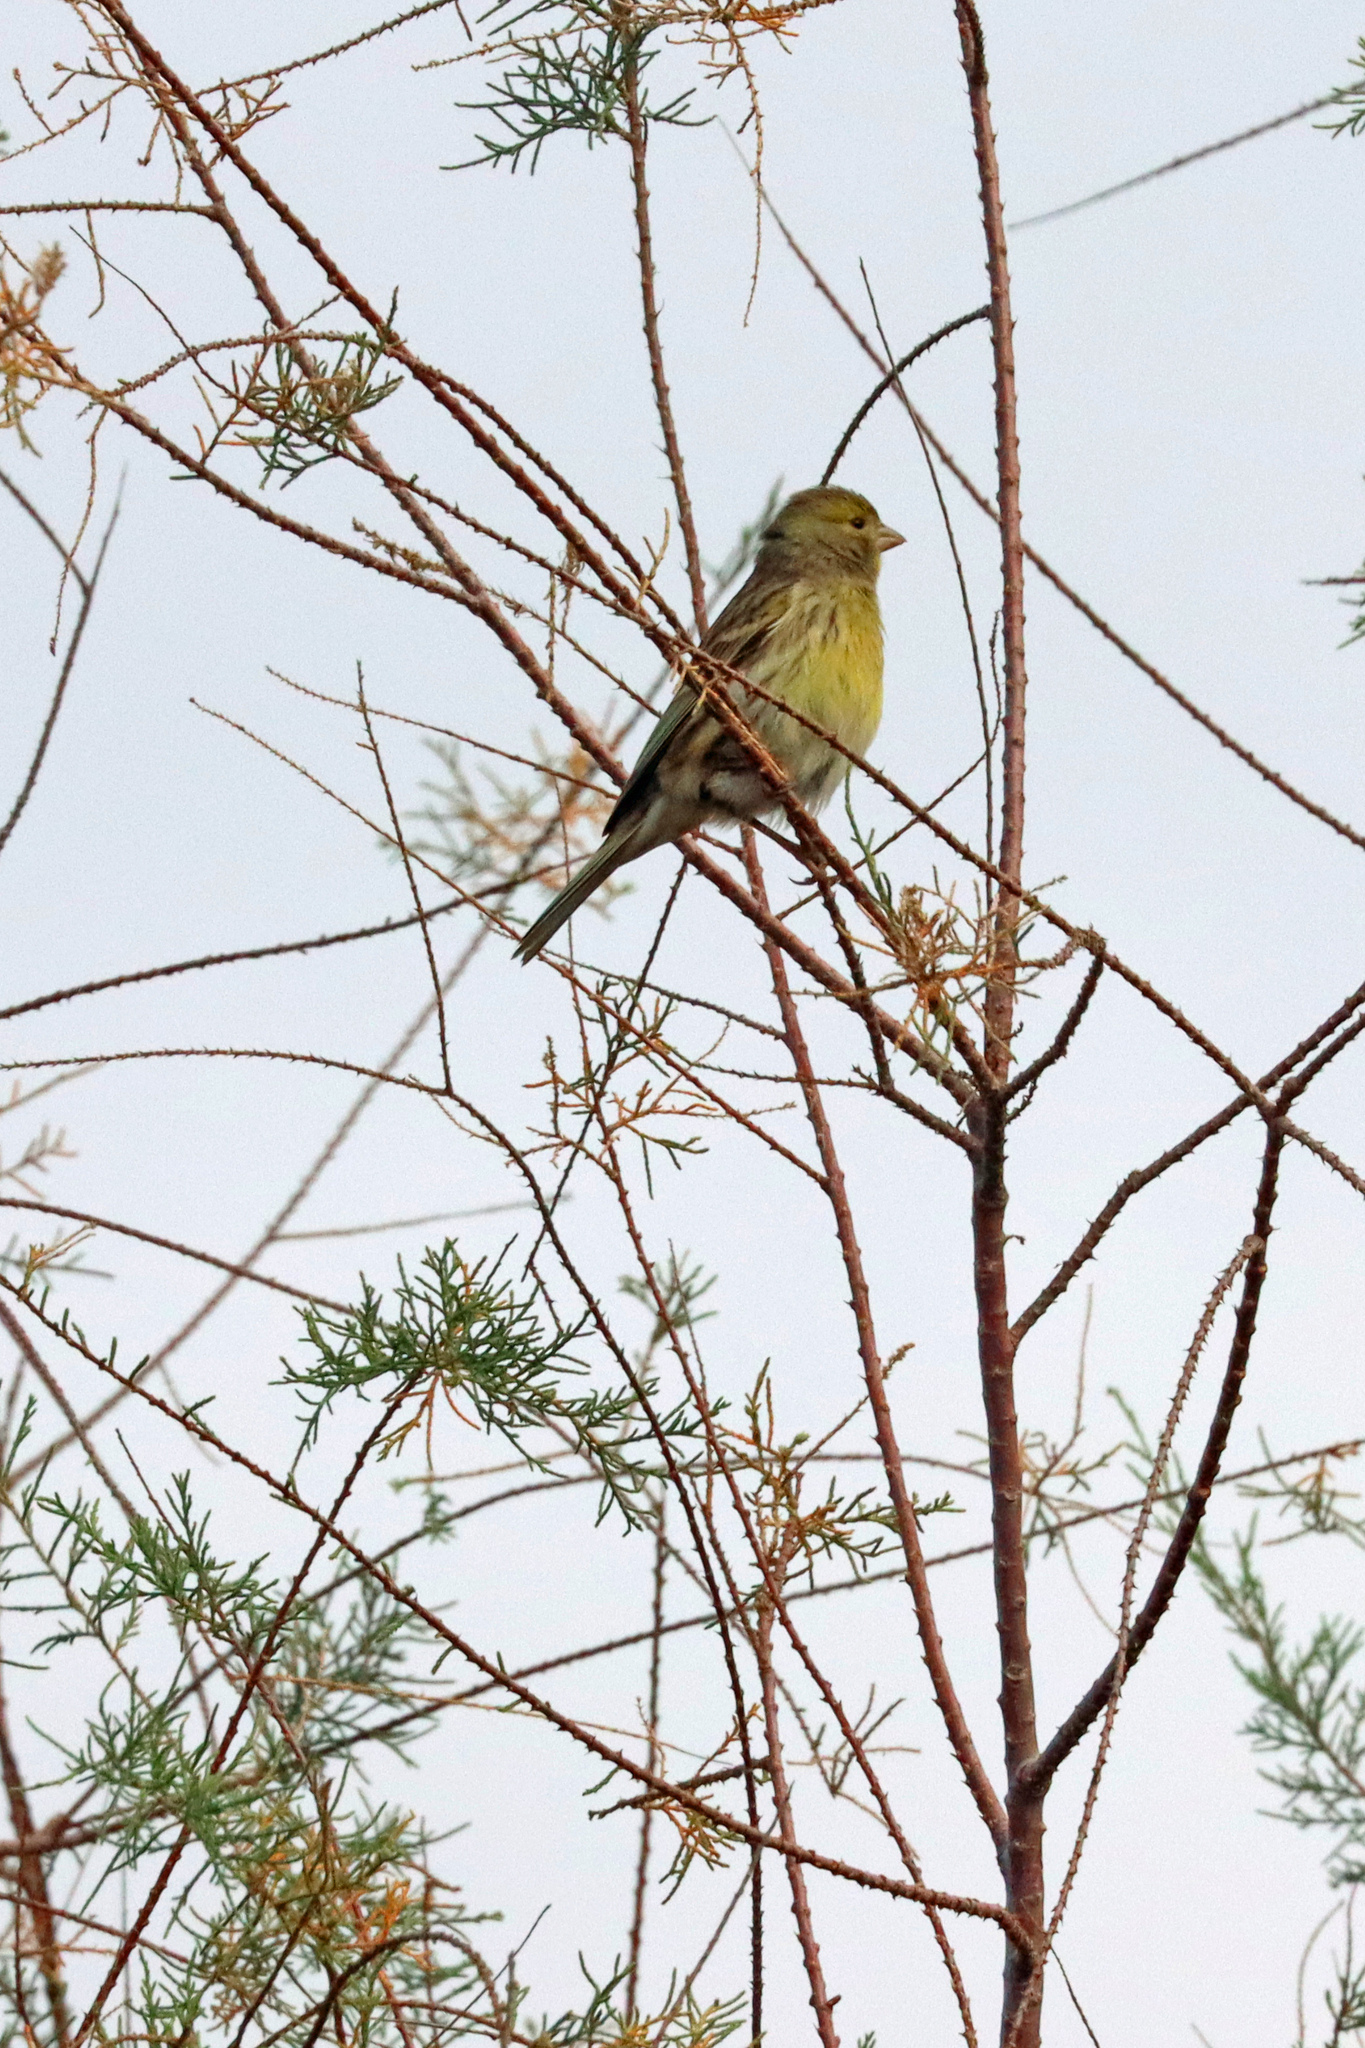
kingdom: Animalia
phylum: Chordata
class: Aves
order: Passeriformes
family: Fringillidae
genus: Serinus
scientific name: Serinus canaria
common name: Atlantic canary
